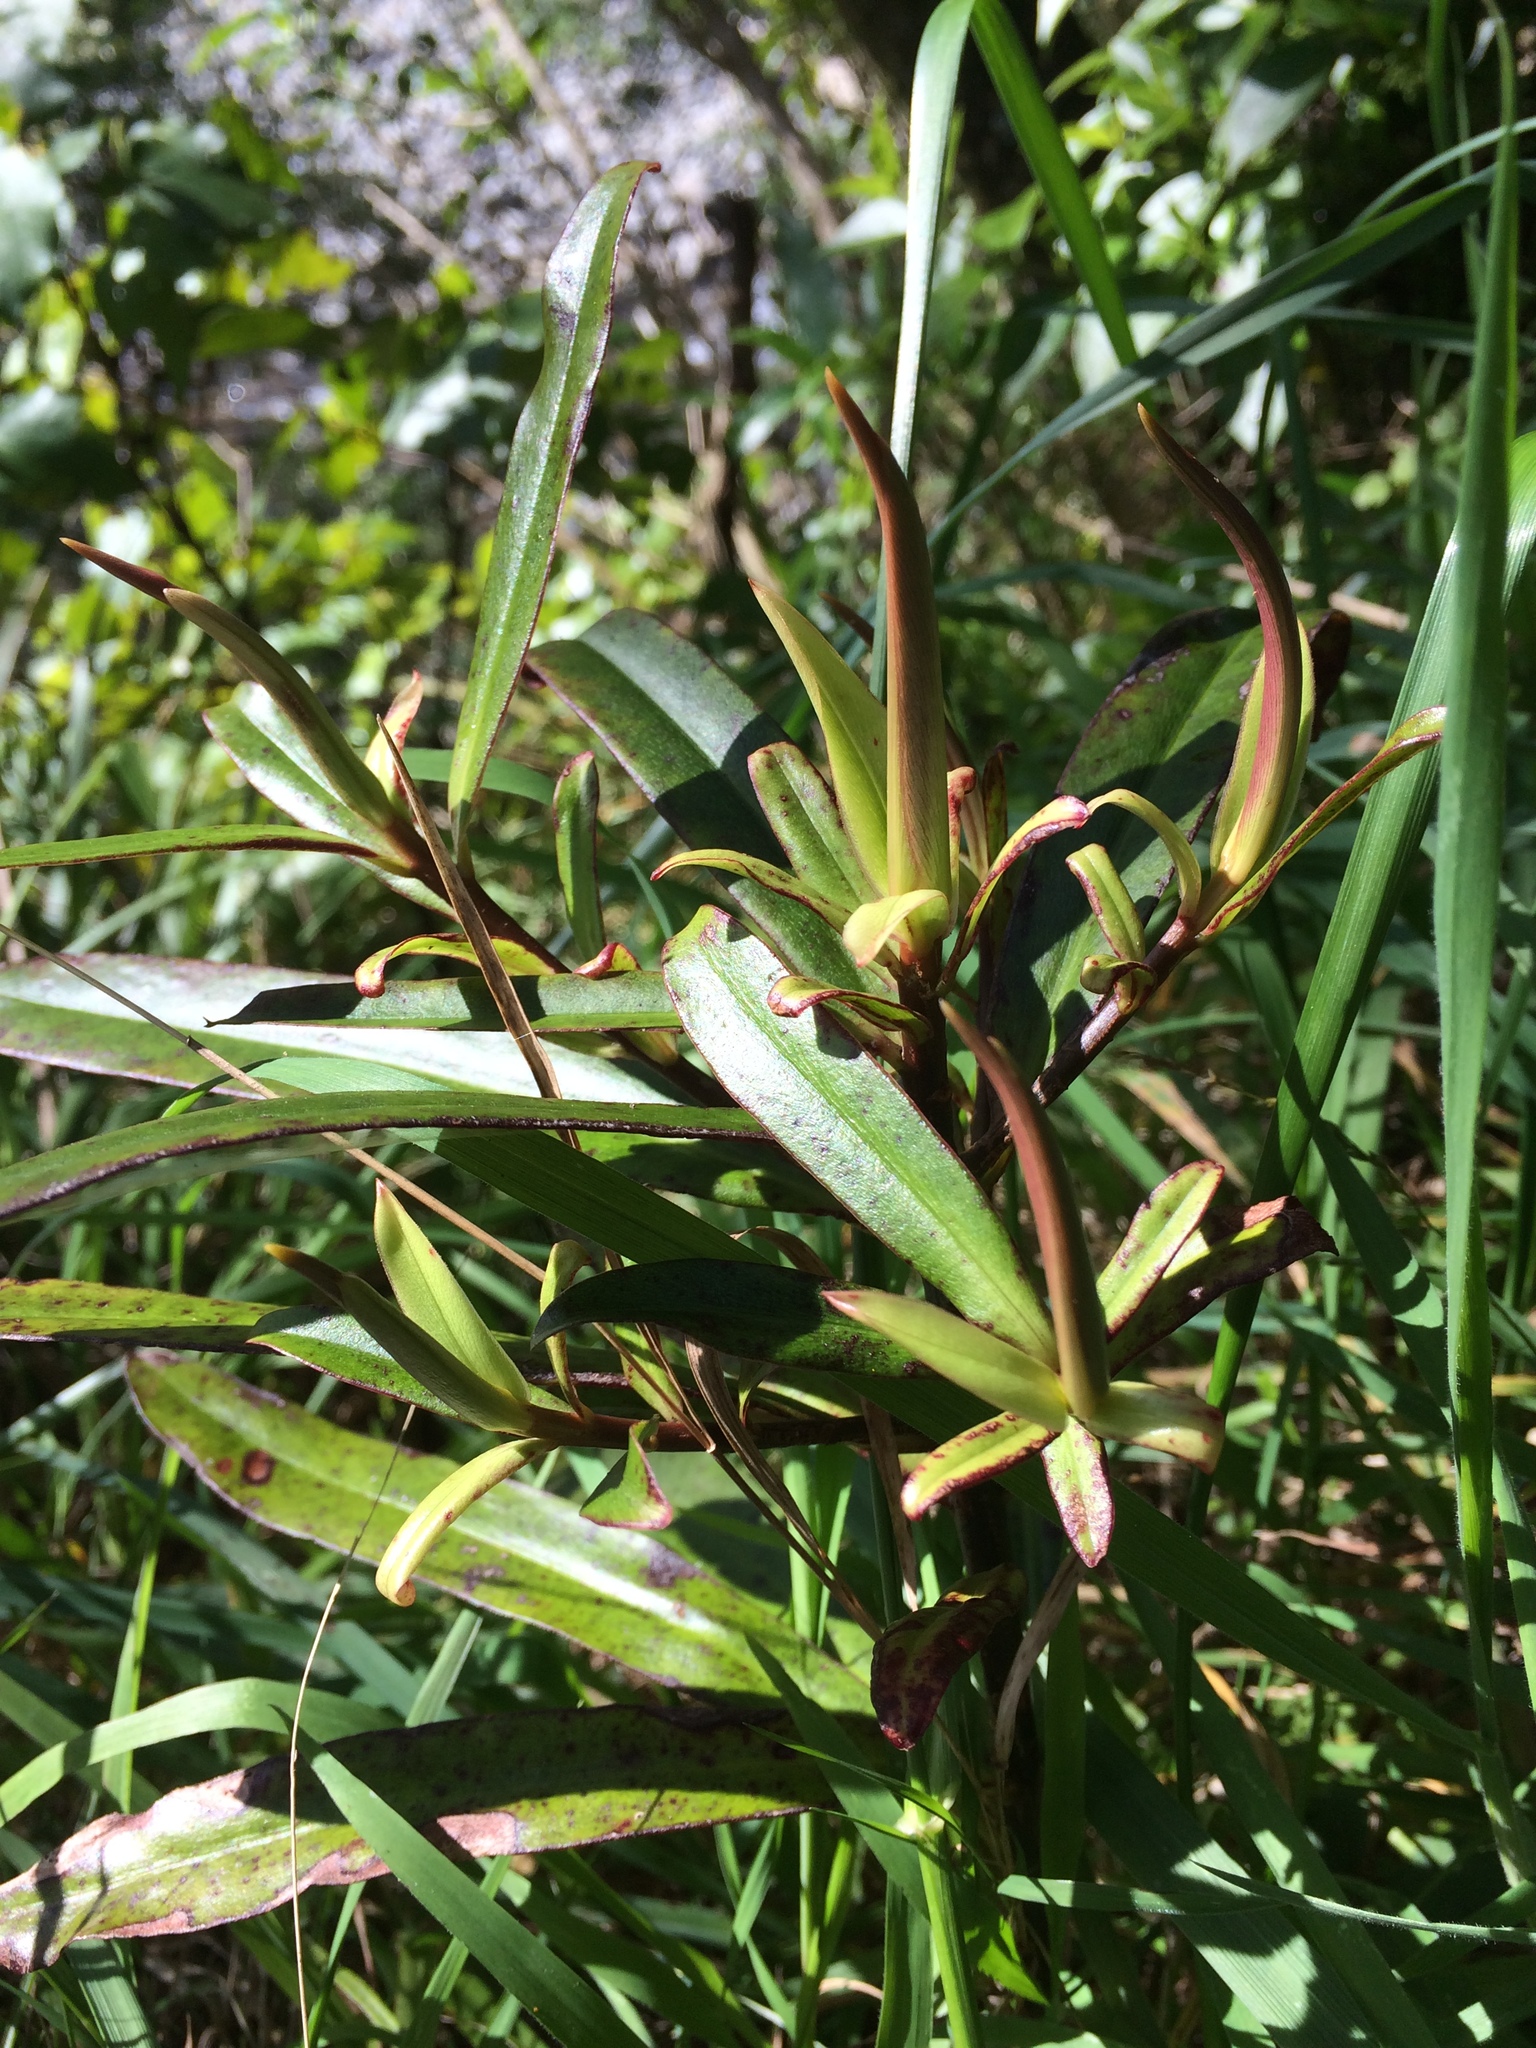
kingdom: Plantae
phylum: Tracheophyta
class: Magnoliopsida
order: Ericales
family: Primulaceae
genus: Myrsine
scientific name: Myrsine salicina
